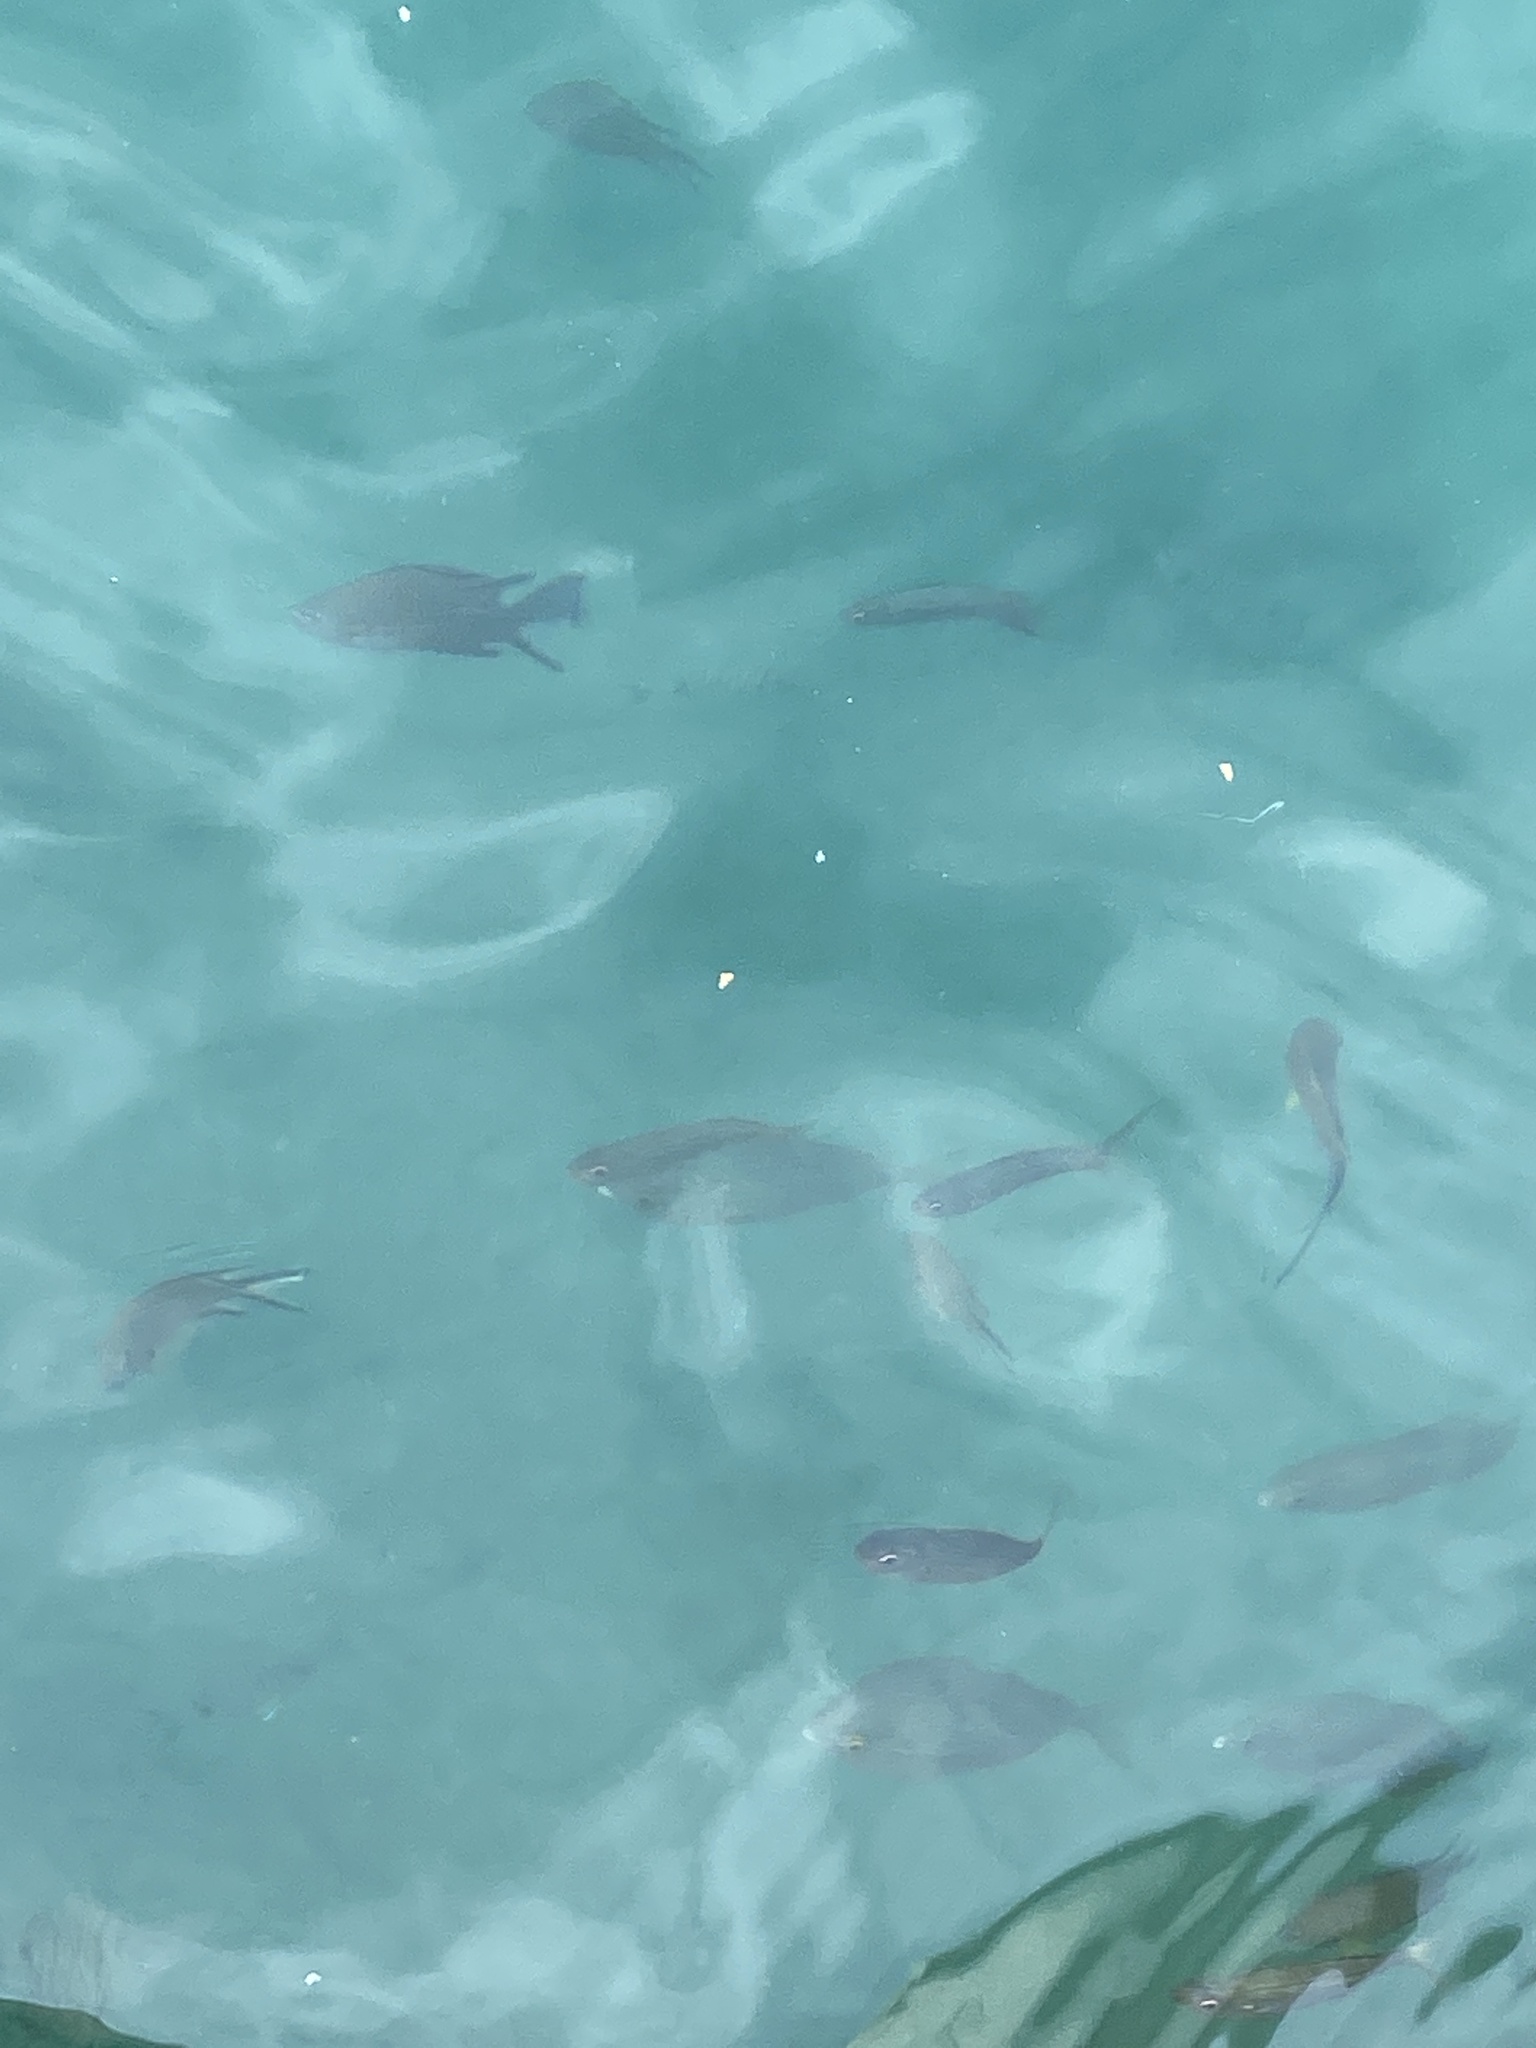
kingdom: Animalia
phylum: Chordata
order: Perciformes
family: Pomacentridae
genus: Chromis
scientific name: Chromis limbata
